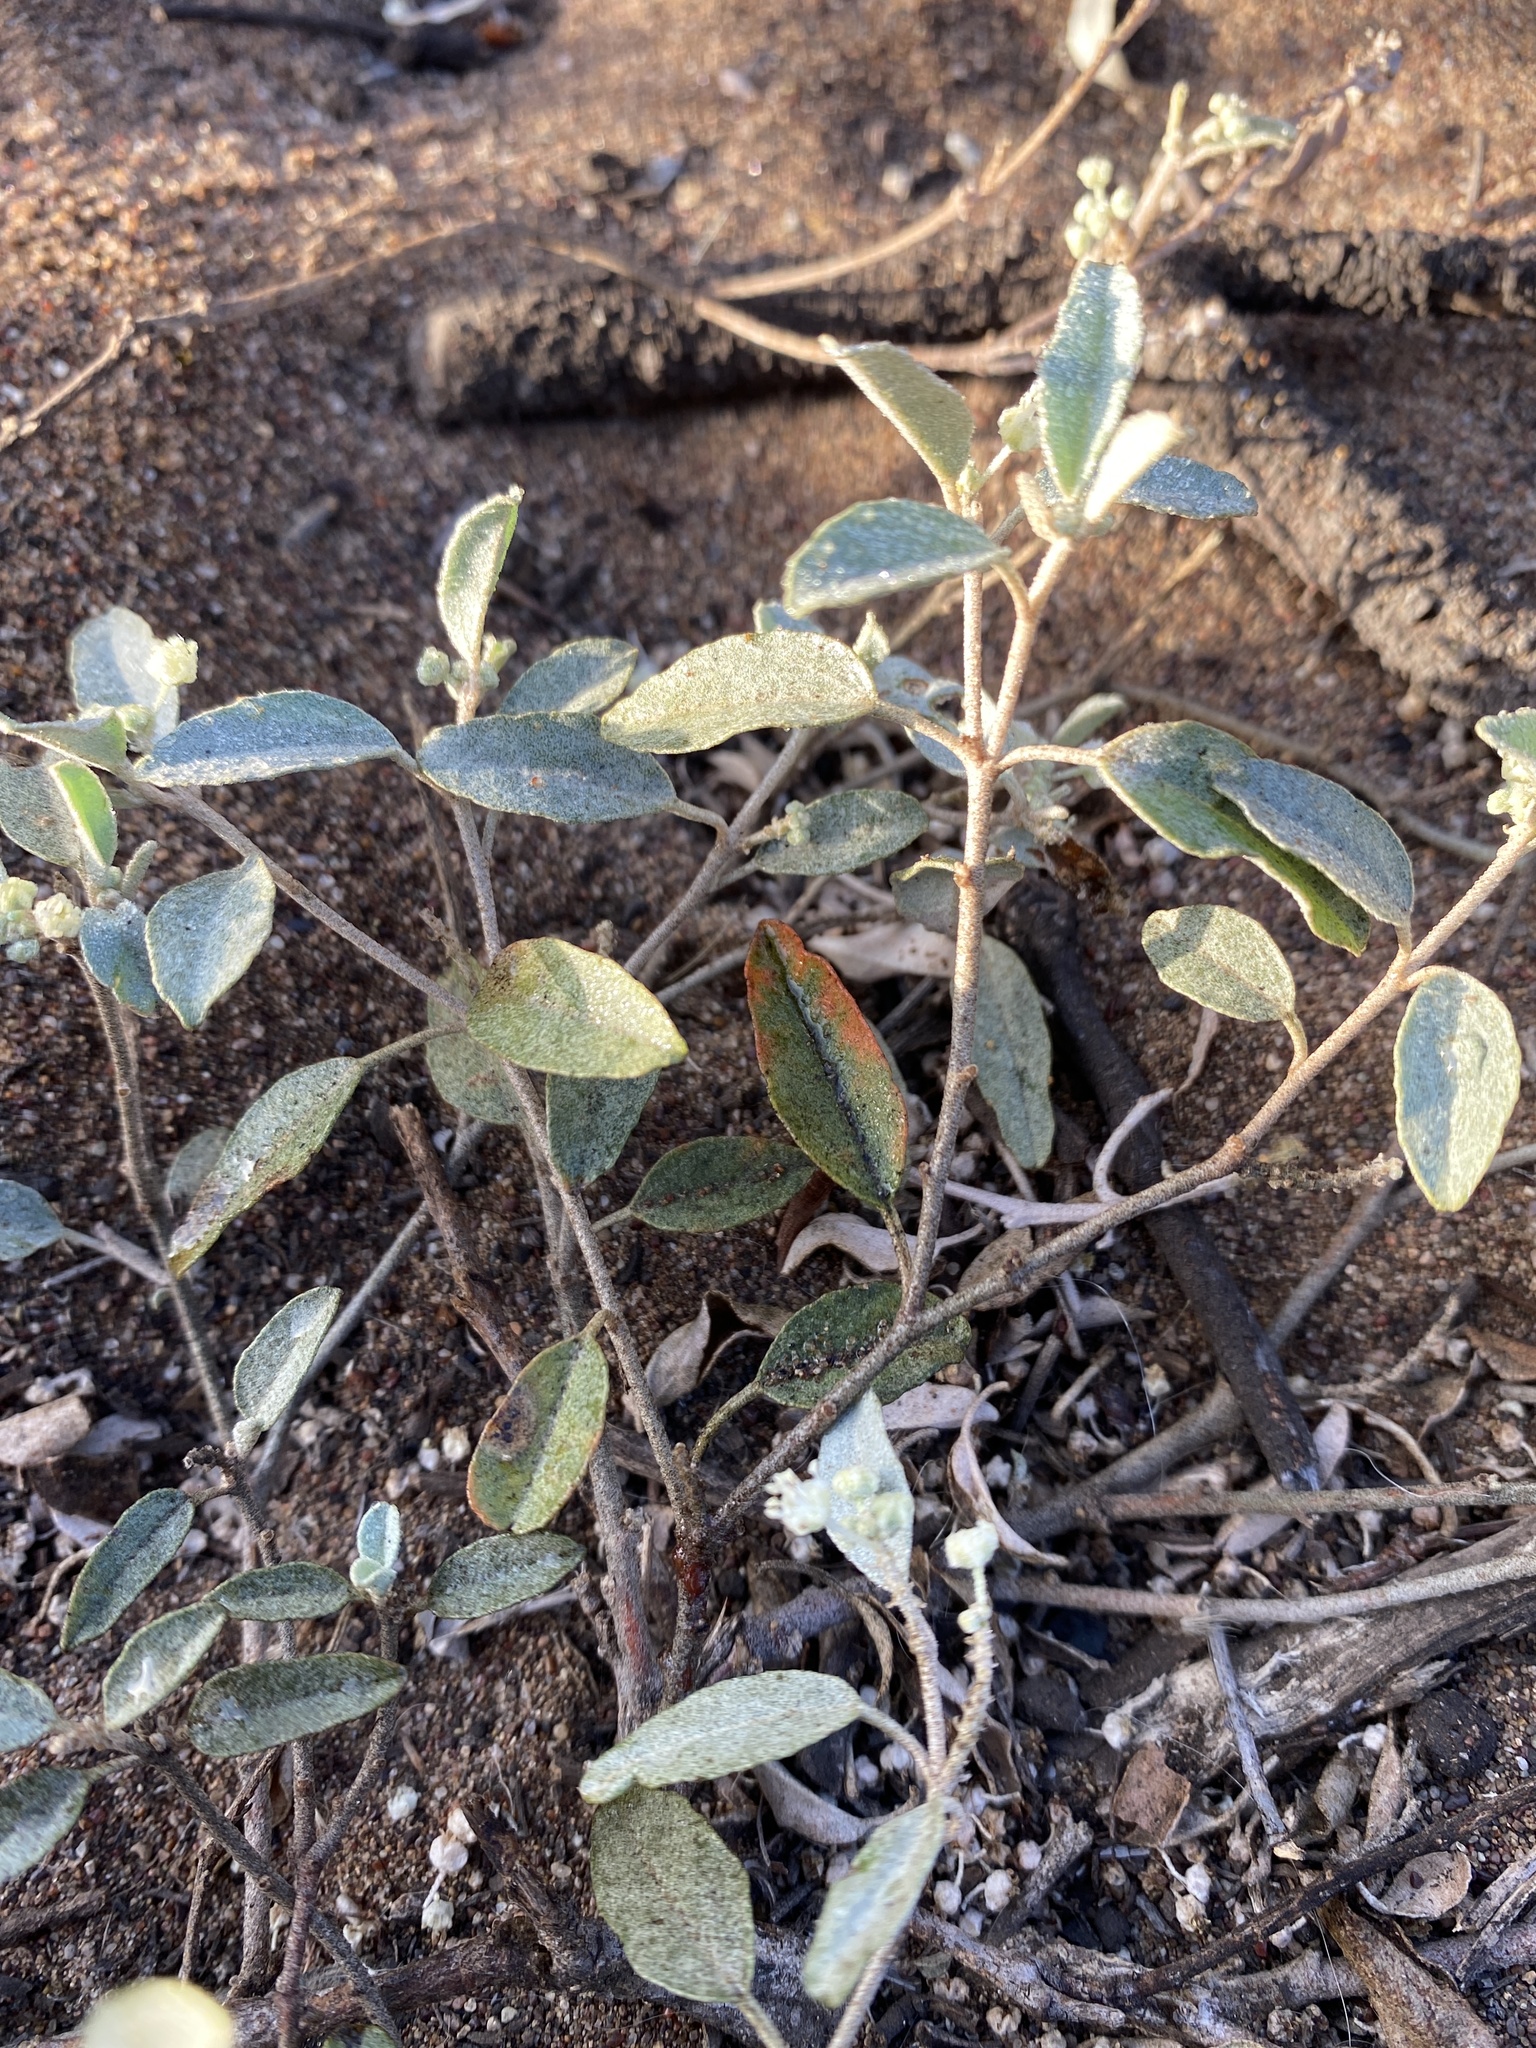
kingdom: Plantae
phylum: Tracheophyta
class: Magnoliopsida
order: Malpighiales
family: Euphorbiaceae
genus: Croton
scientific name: Croton californicus
